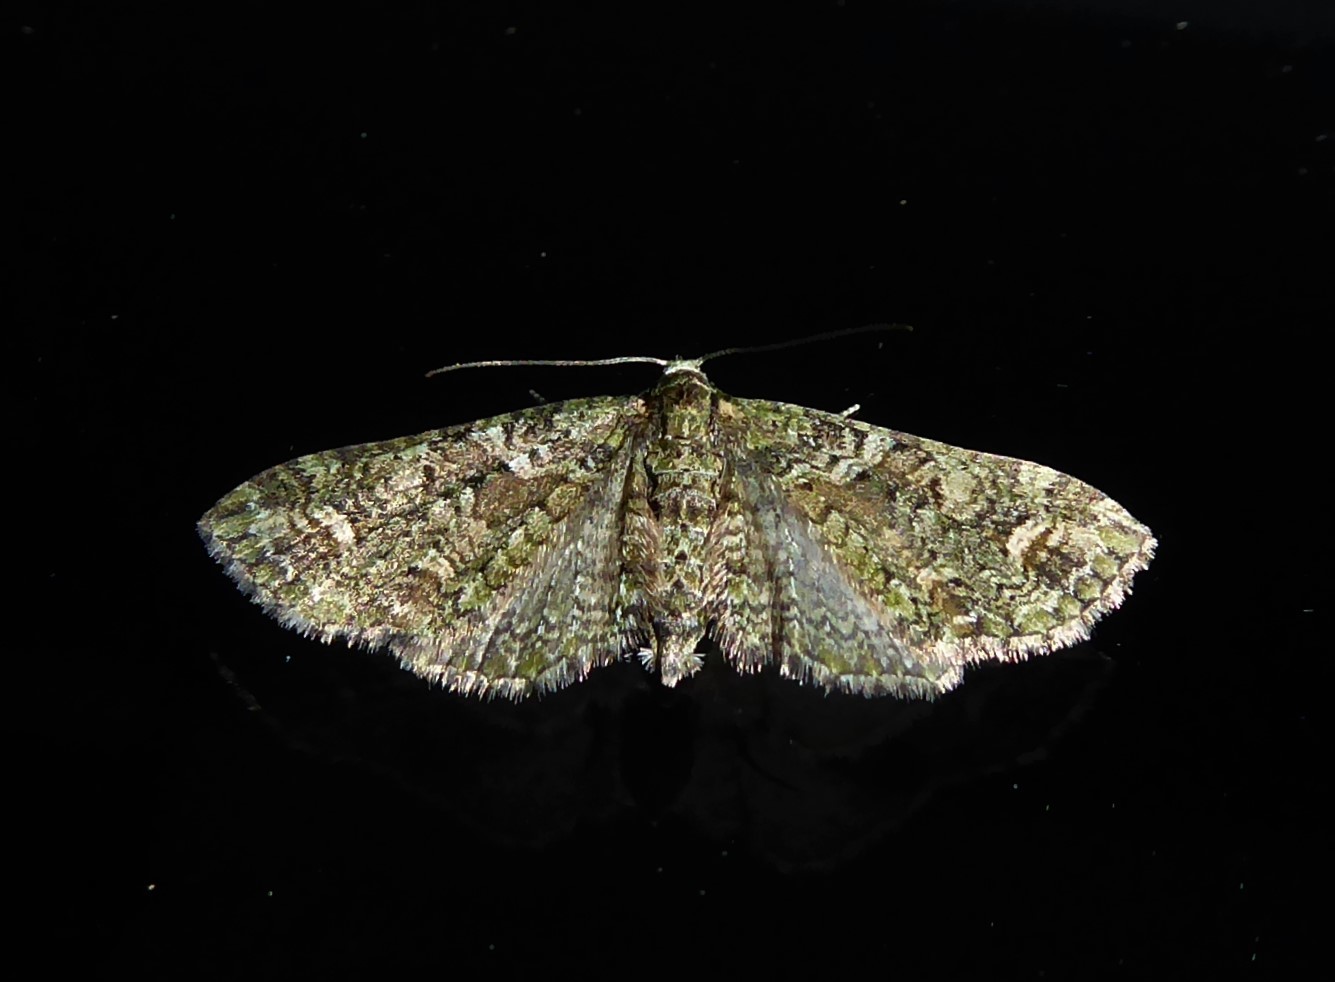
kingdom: Animalia
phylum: Arthropoda
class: Insecta
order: Lepidoptera
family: Geometridae
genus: Idaea
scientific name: Idaea mutanda
